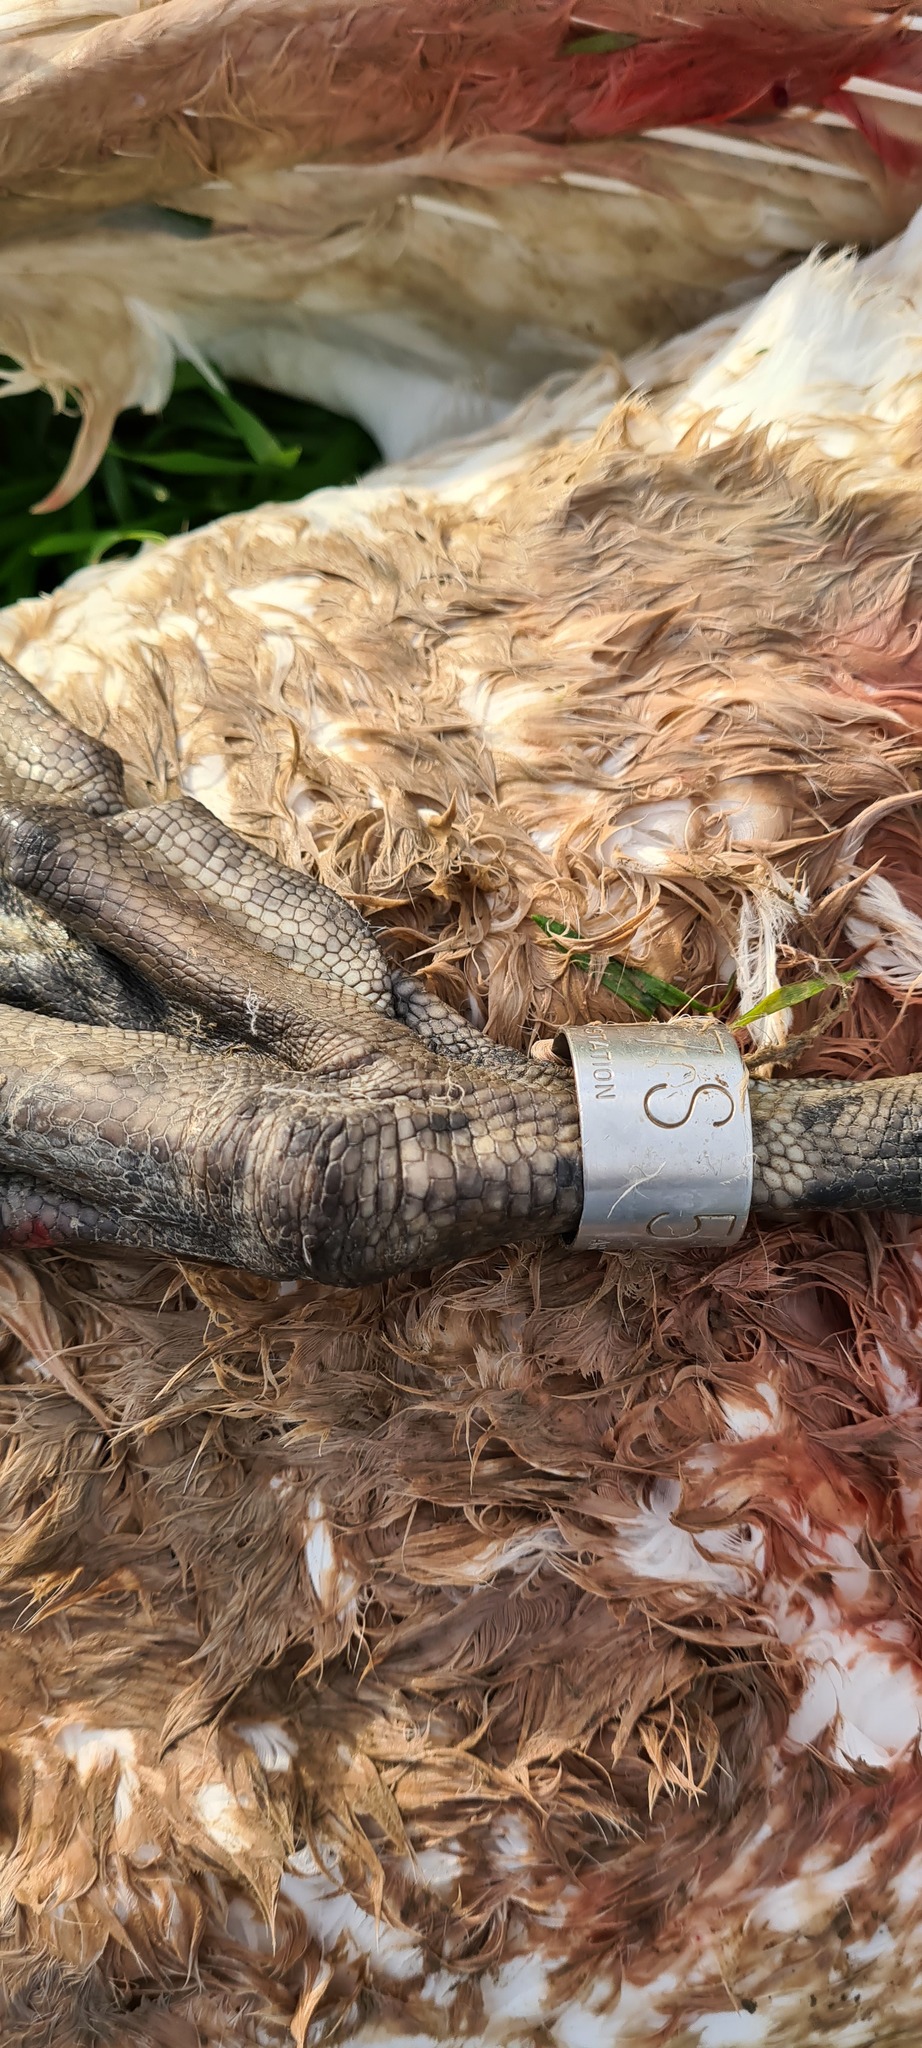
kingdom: Animalia
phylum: Chordata
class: Aves
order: Anseriformes
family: Anatidae
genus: Cygnus
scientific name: Cygnus olor
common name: Mute swan
